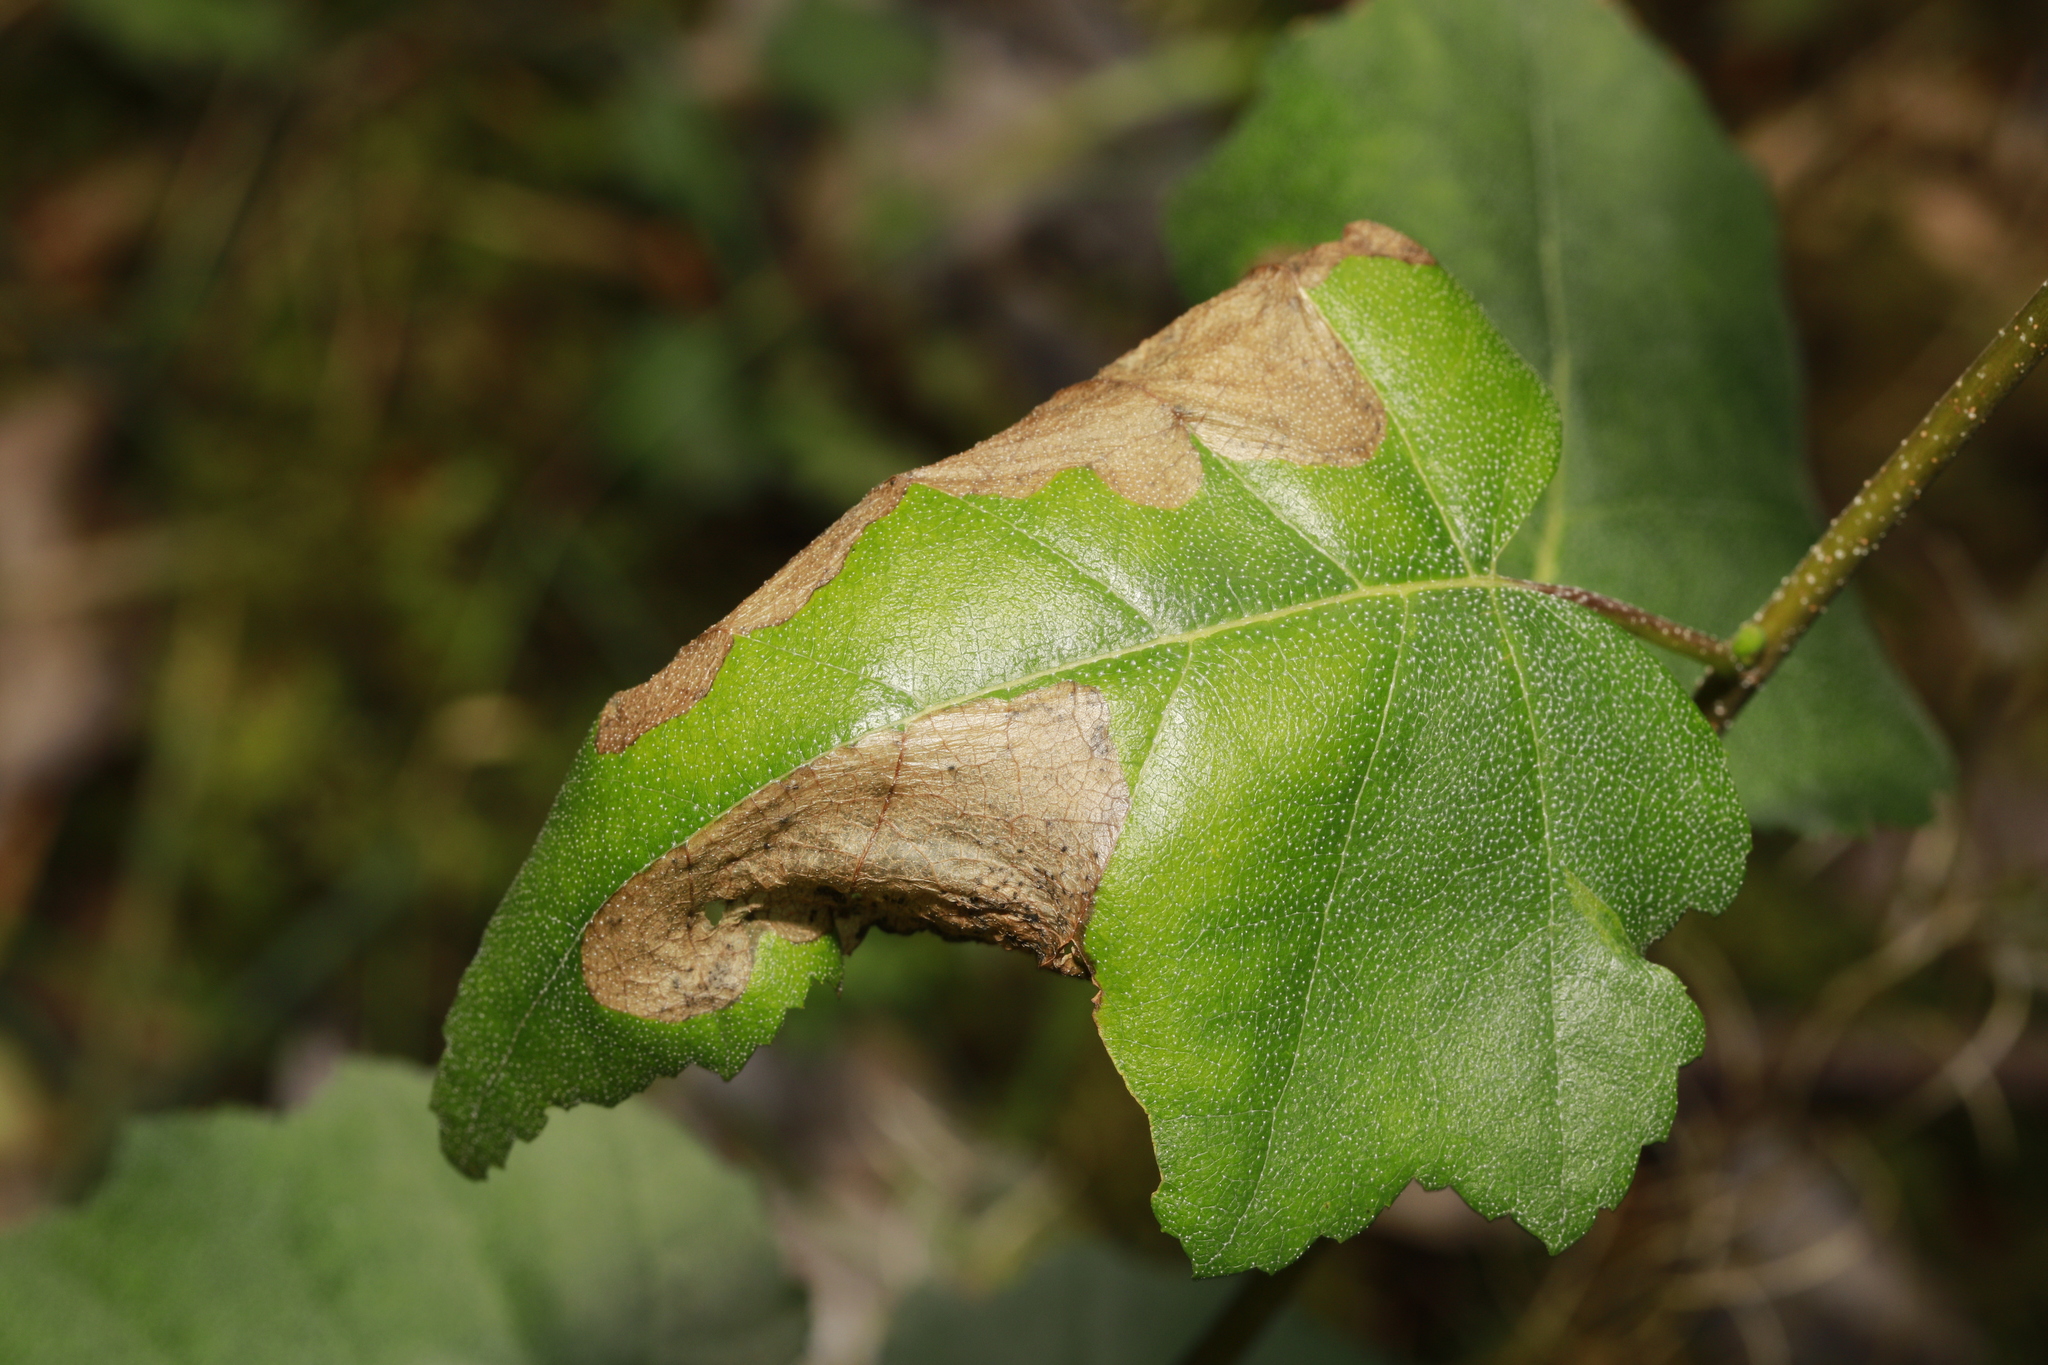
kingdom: Animalia
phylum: Arthropoda
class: Insecta
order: Hymenoptera
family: Tenthredinidae
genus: Scolioneura
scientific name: Scolioneura betuleti
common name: Wasp
